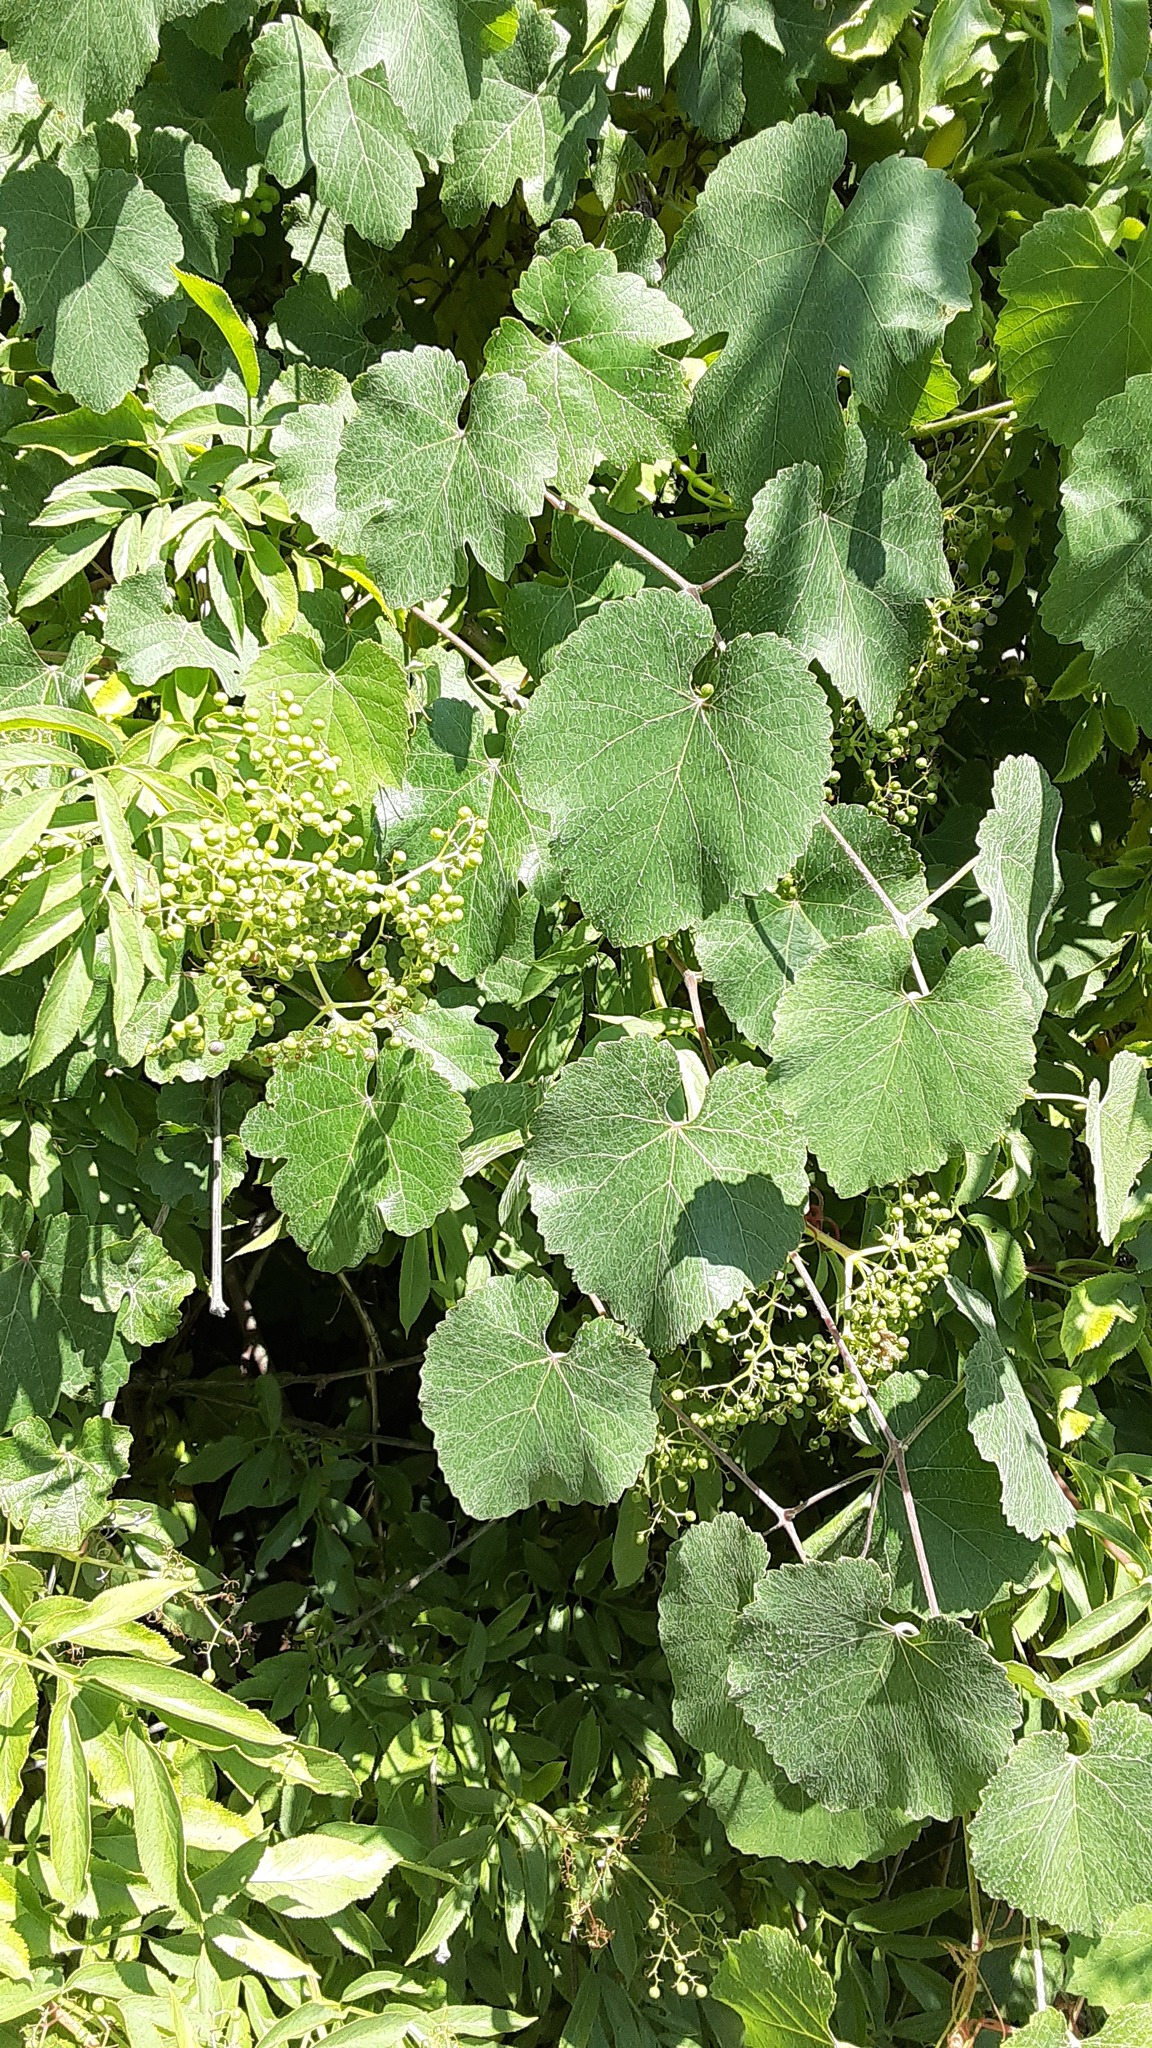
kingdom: Plantae
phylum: Tracheophyta
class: Magnoliopsida
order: Vitales
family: Vitaceae
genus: Vitis
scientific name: Vitis californica
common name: California wild grape
